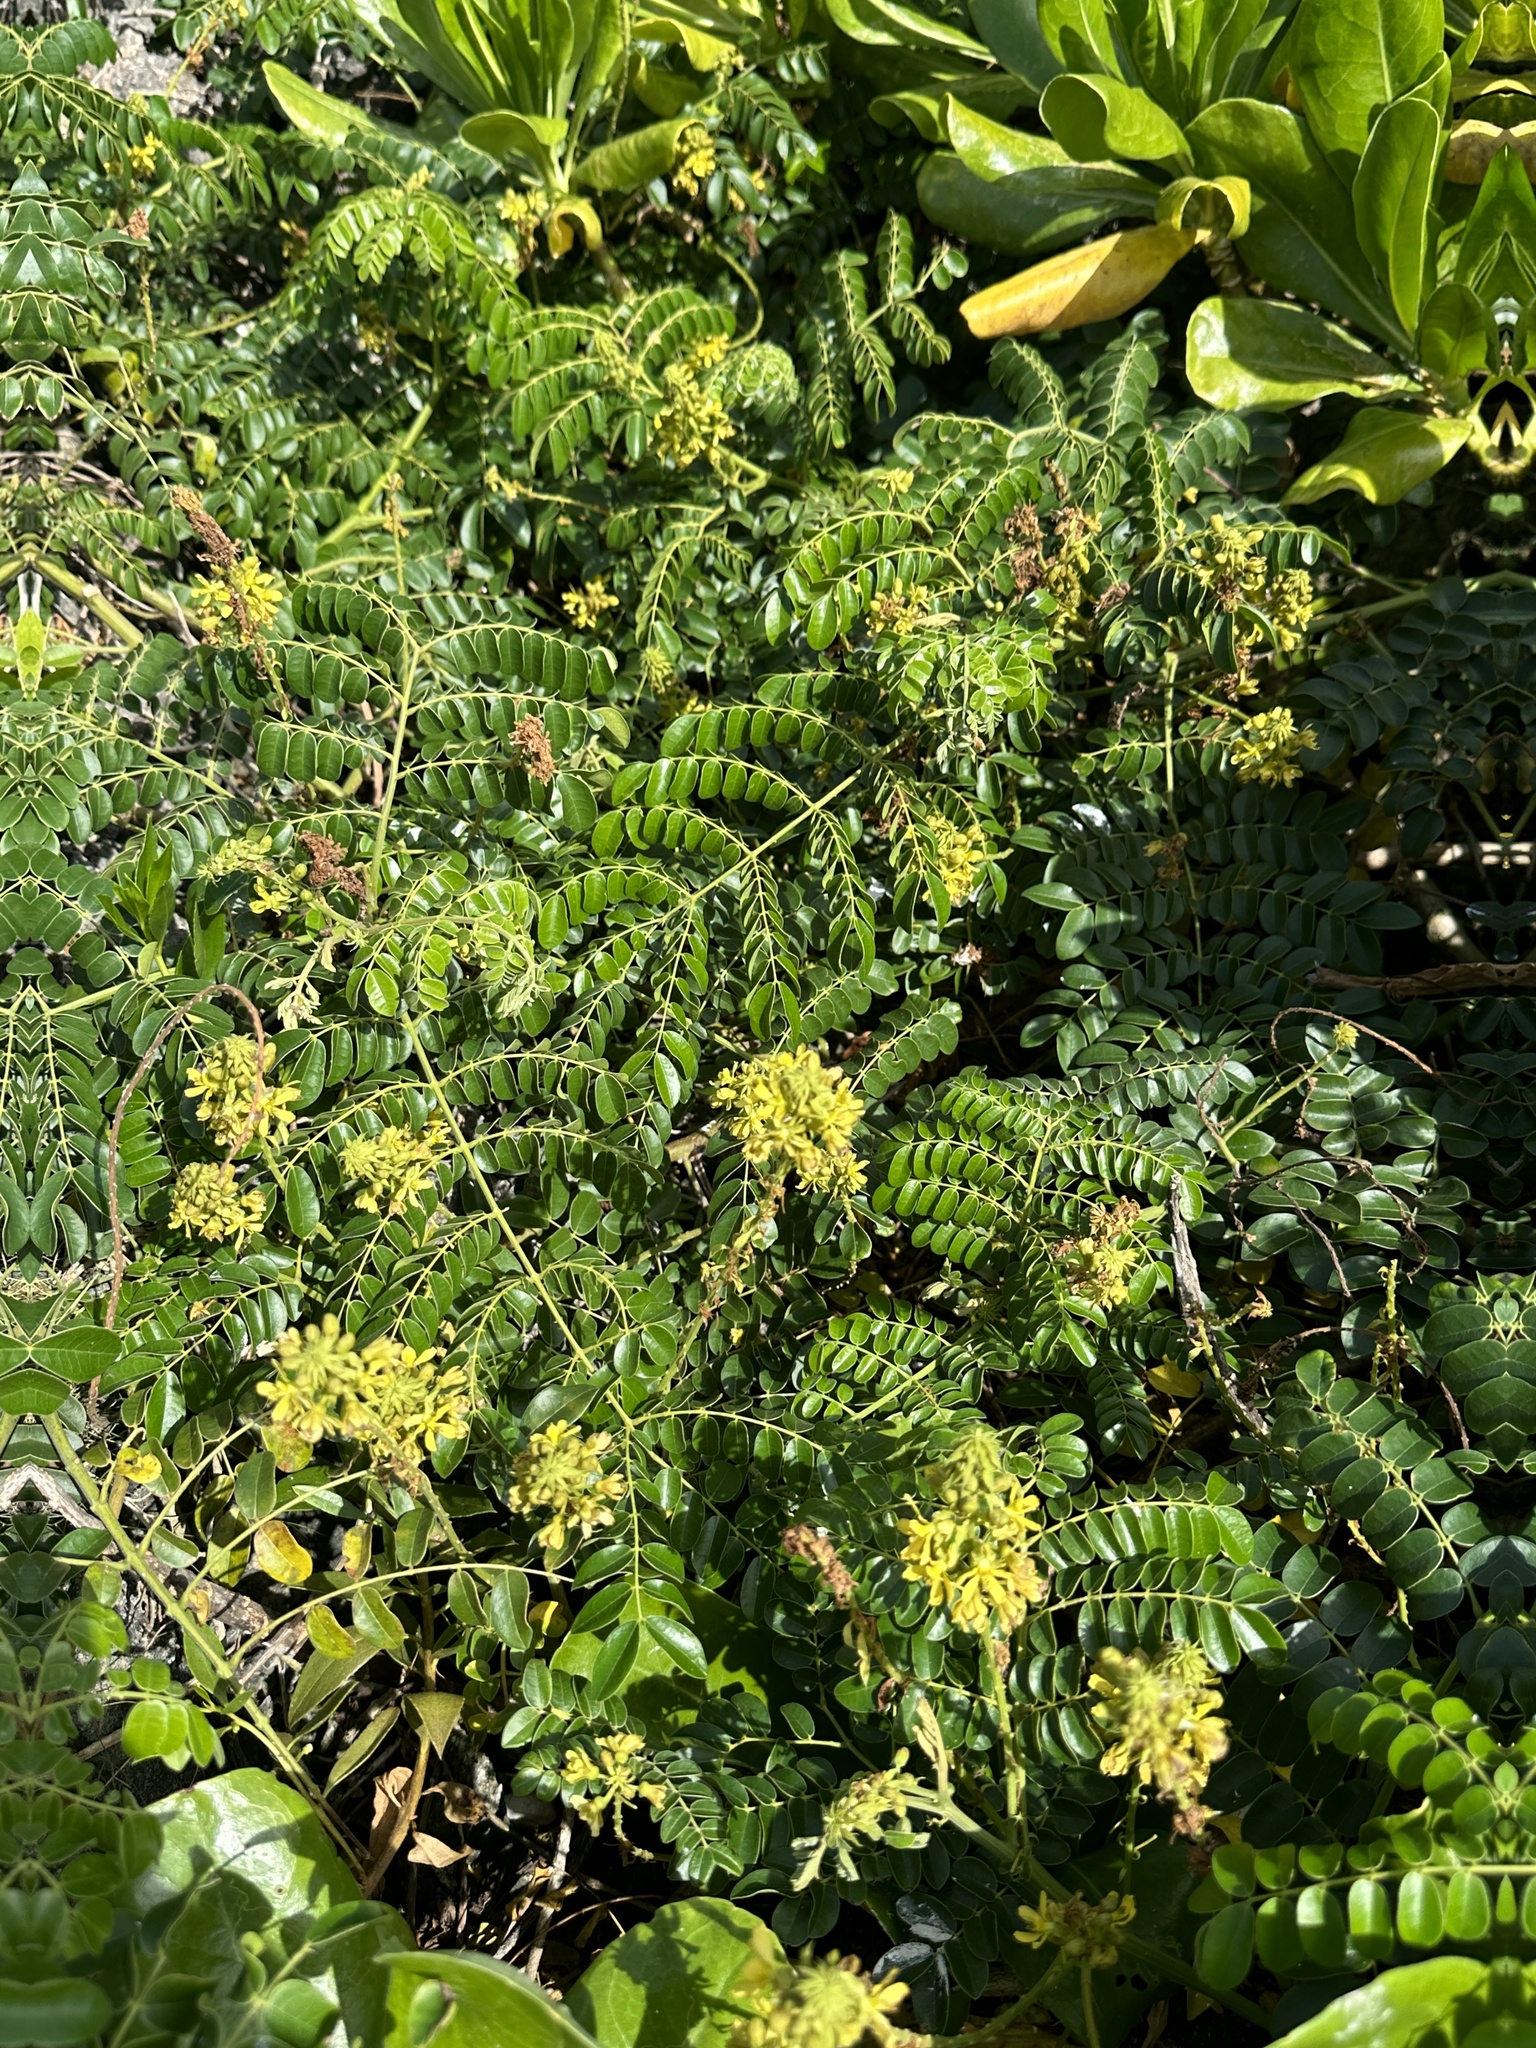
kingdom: Plantae
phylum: Tracheophyta
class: Magnoliopsida
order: Fabales
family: Fabaceae
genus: Guilandina
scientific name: Guilandina bonduc
